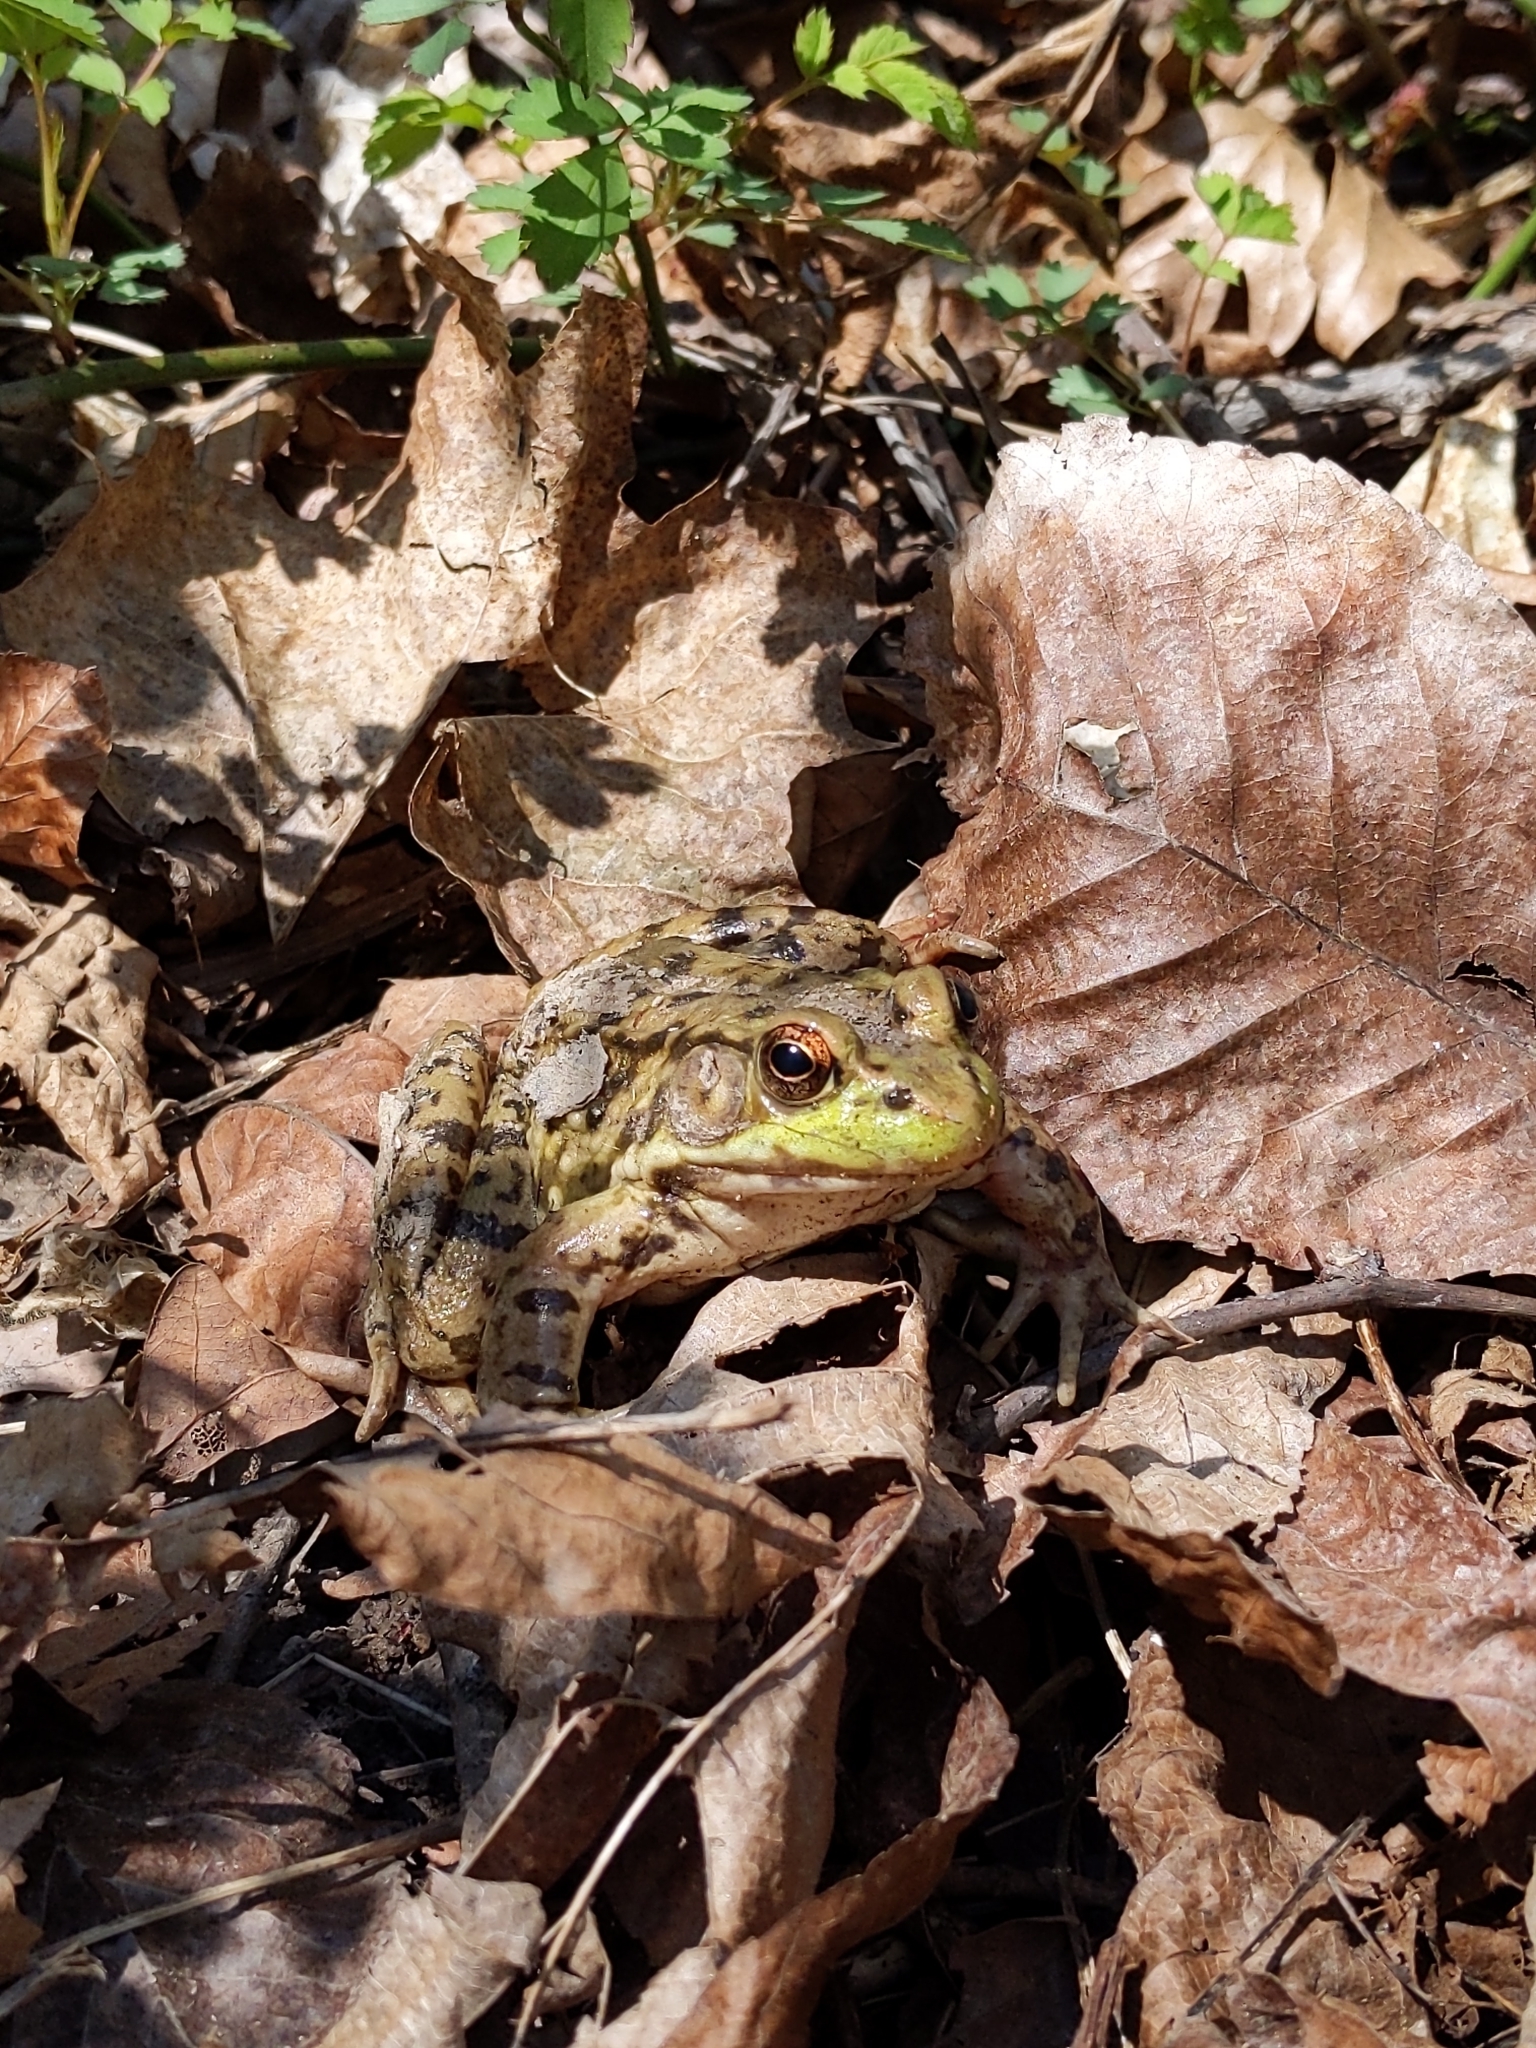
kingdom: Animalia
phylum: Chordata
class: Amphibia
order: Anura
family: Ranidae
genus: Lithobates
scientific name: Lithobates clamitans
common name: Green frog
